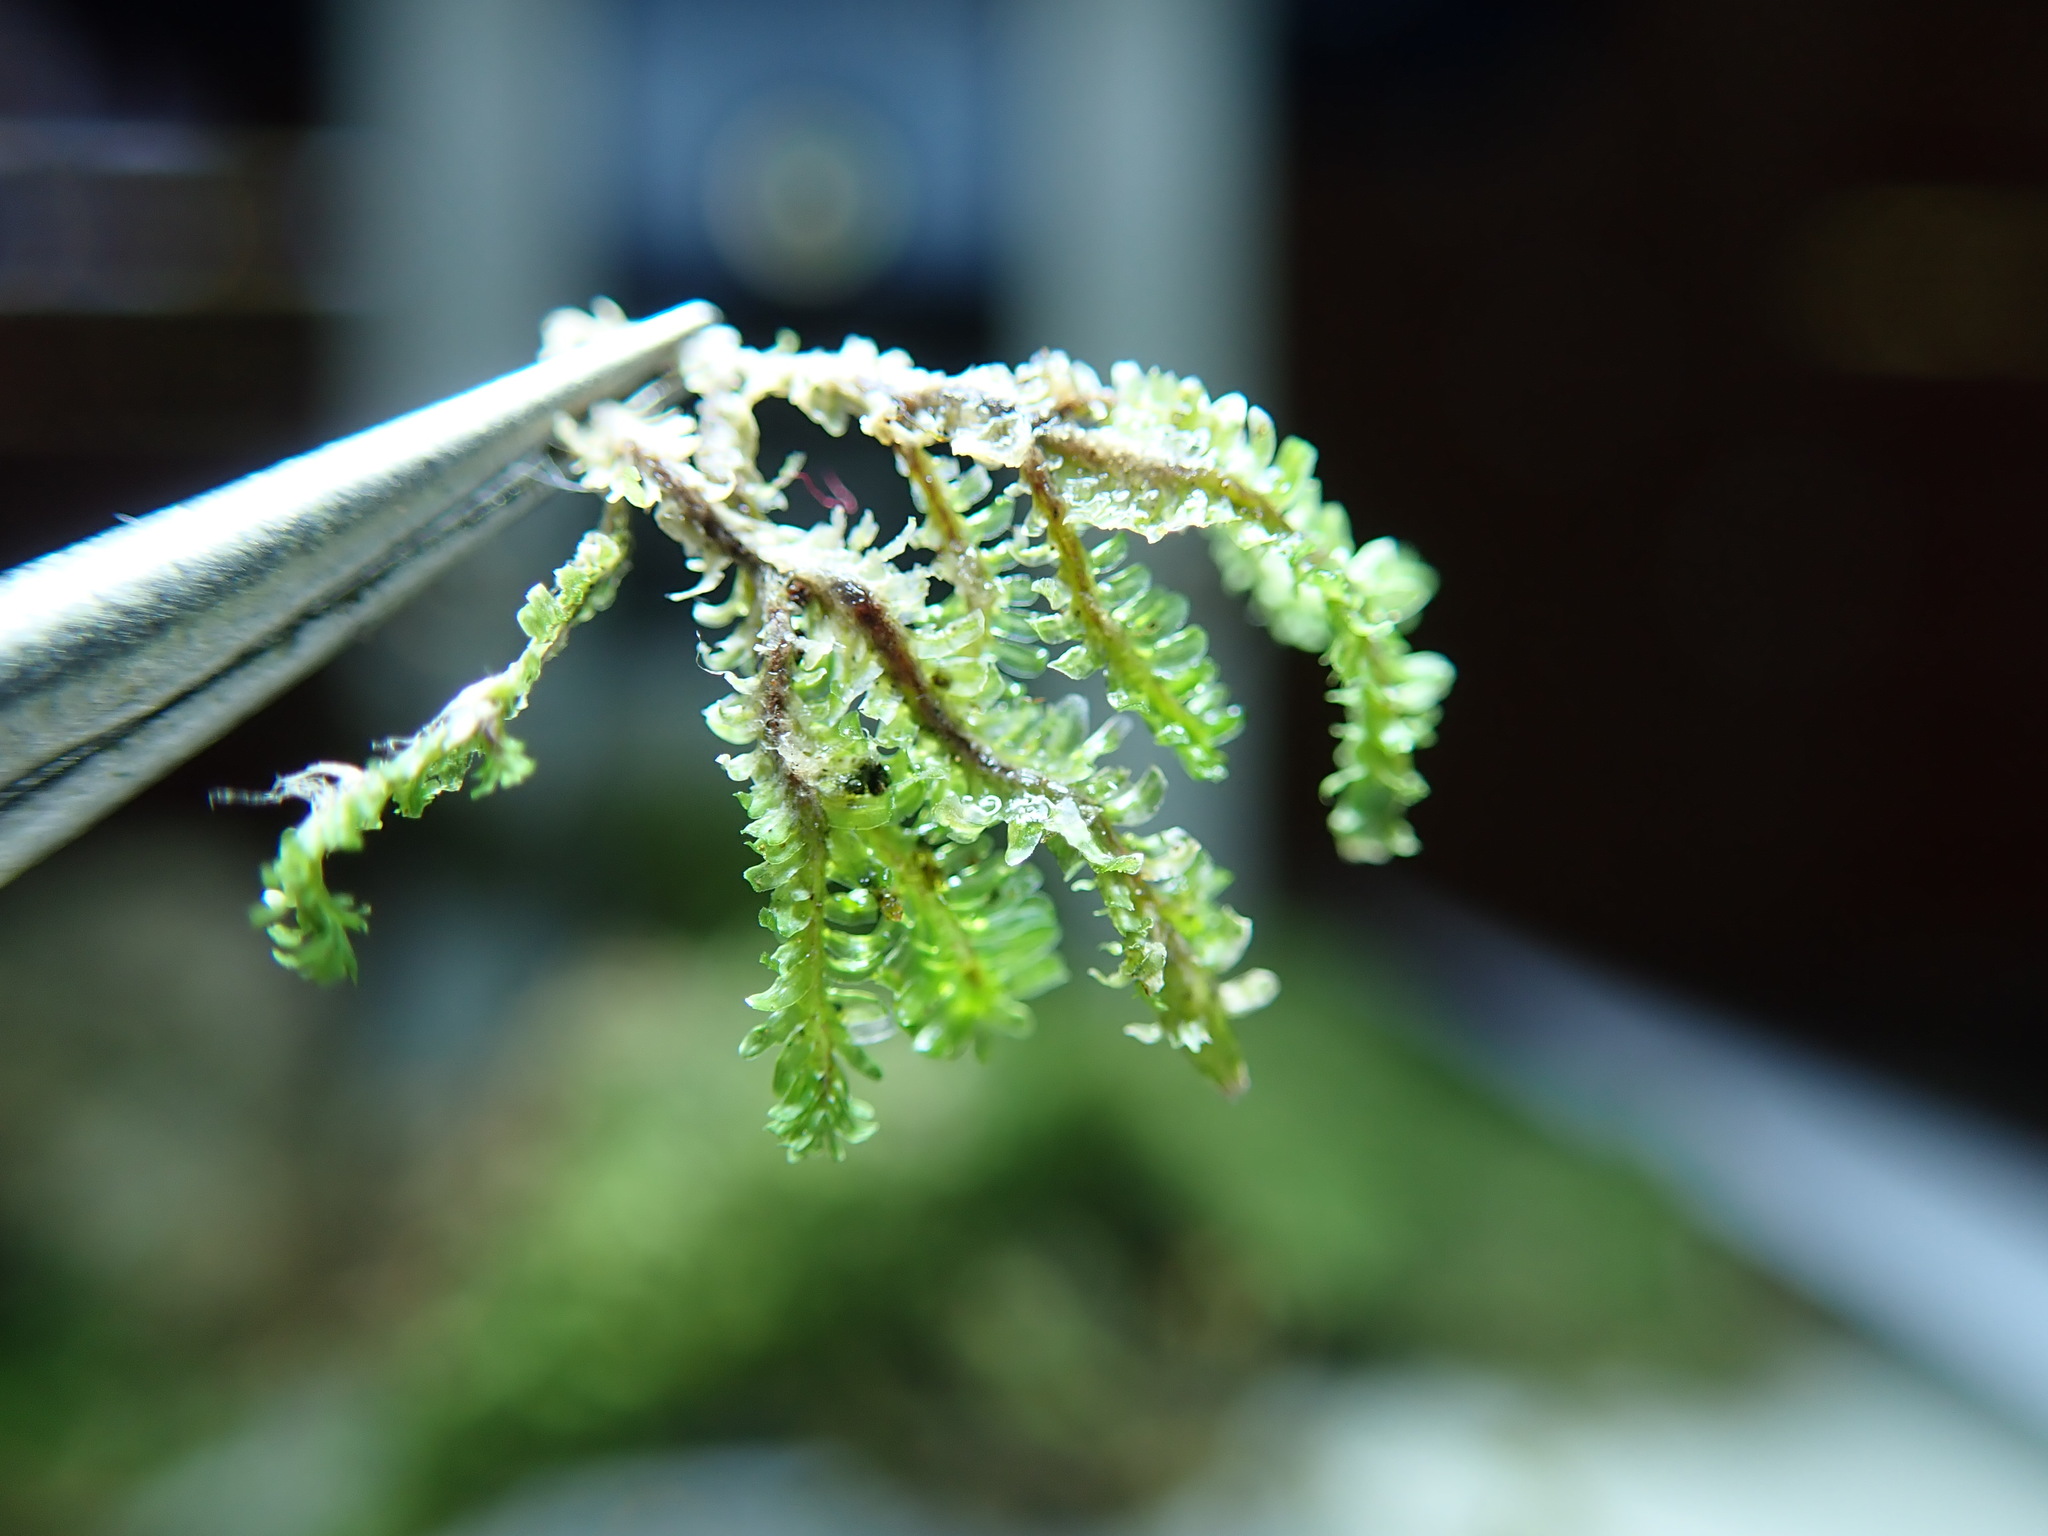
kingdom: Plantae
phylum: Marchantiophyta
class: Jungermanniopsida
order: Jungermanniales
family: Scapaniaceae
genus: Diplophyllum
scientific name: Diplophyllum albicans
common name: White earwort
